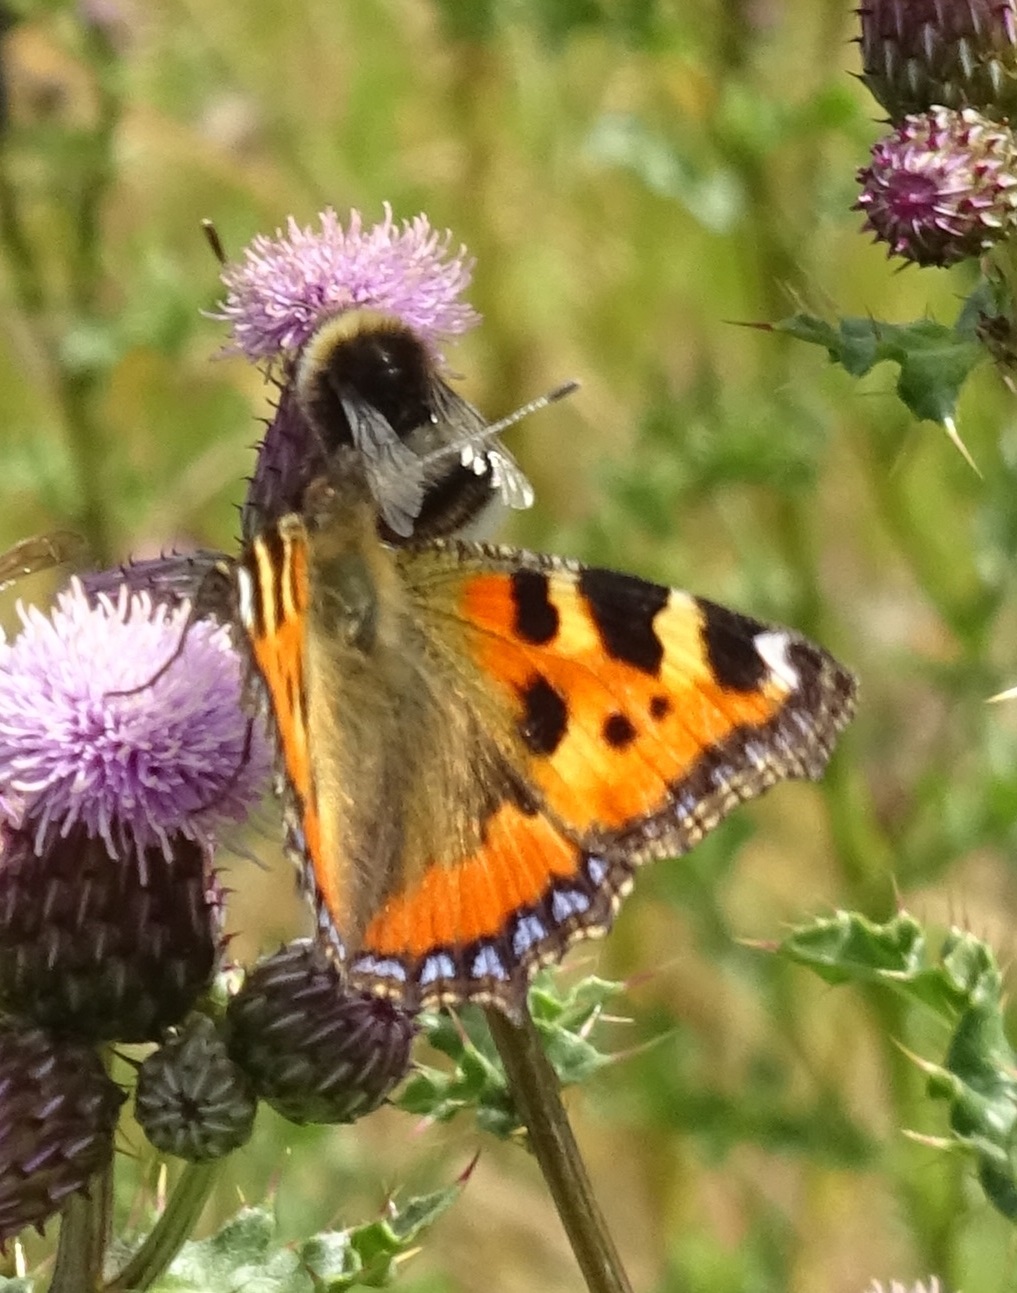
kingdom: Animalia
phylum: Arthropoda
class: Insecta
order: Lepidoptera
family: Nymphalidae
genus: Aglais
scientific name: Aglais urticae
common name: Small tortoiseshell
